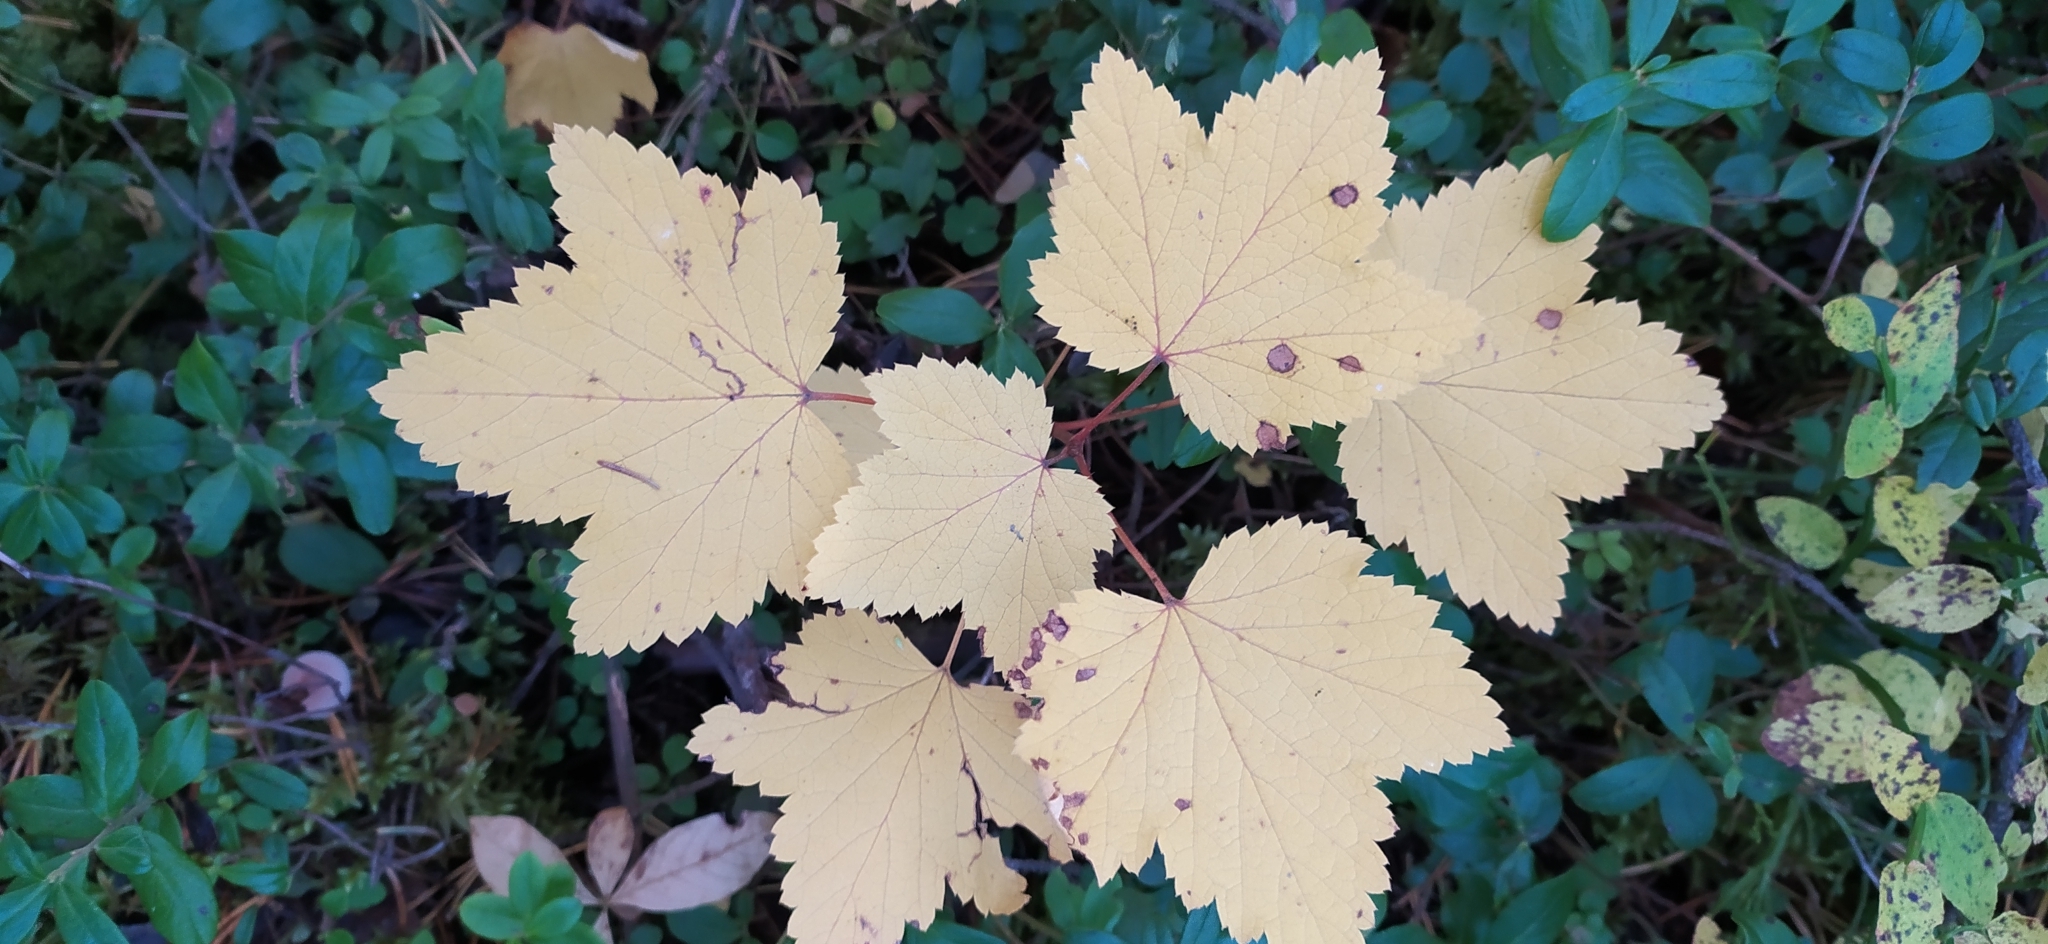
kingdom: Plantae
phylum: Tracheophyta
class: Magnoliopsida
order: Saxifragales
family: Grossulariaceae
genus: Ribes
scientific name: Ribes spicatum
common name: Downy currant
